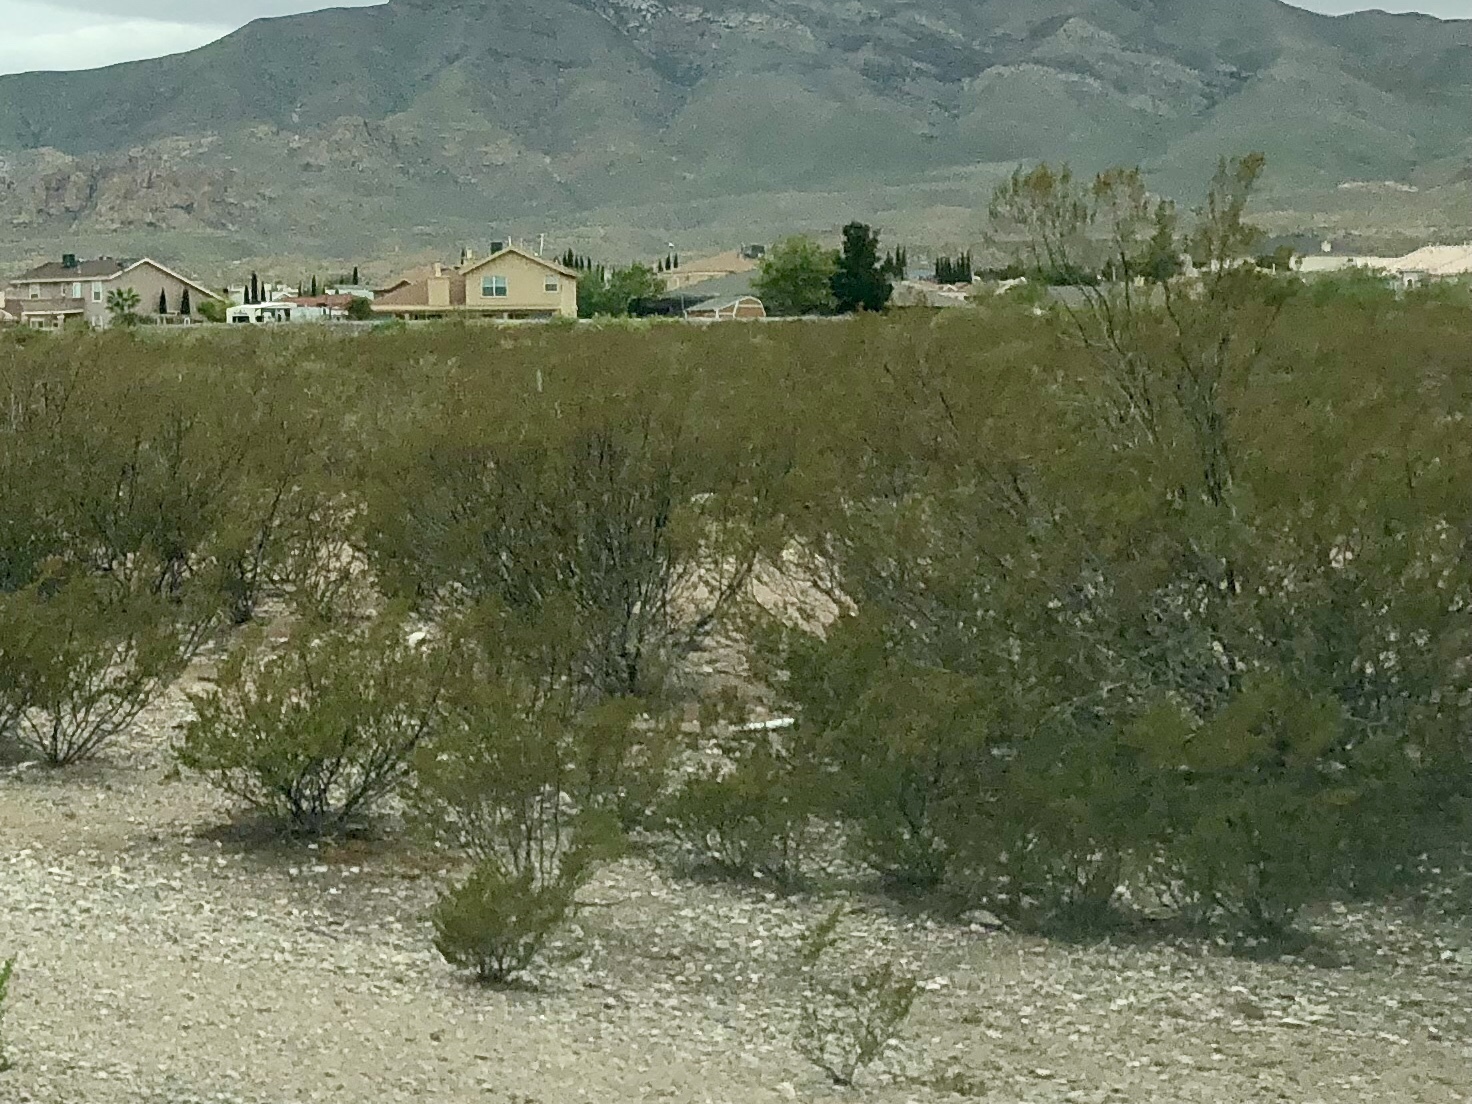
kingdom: Plantae
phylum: Tracheophyta
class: Magnoliopsida
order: Zygophyllales
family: Zygophyllaceae
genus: Larrea
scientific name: Larrea tridentata
